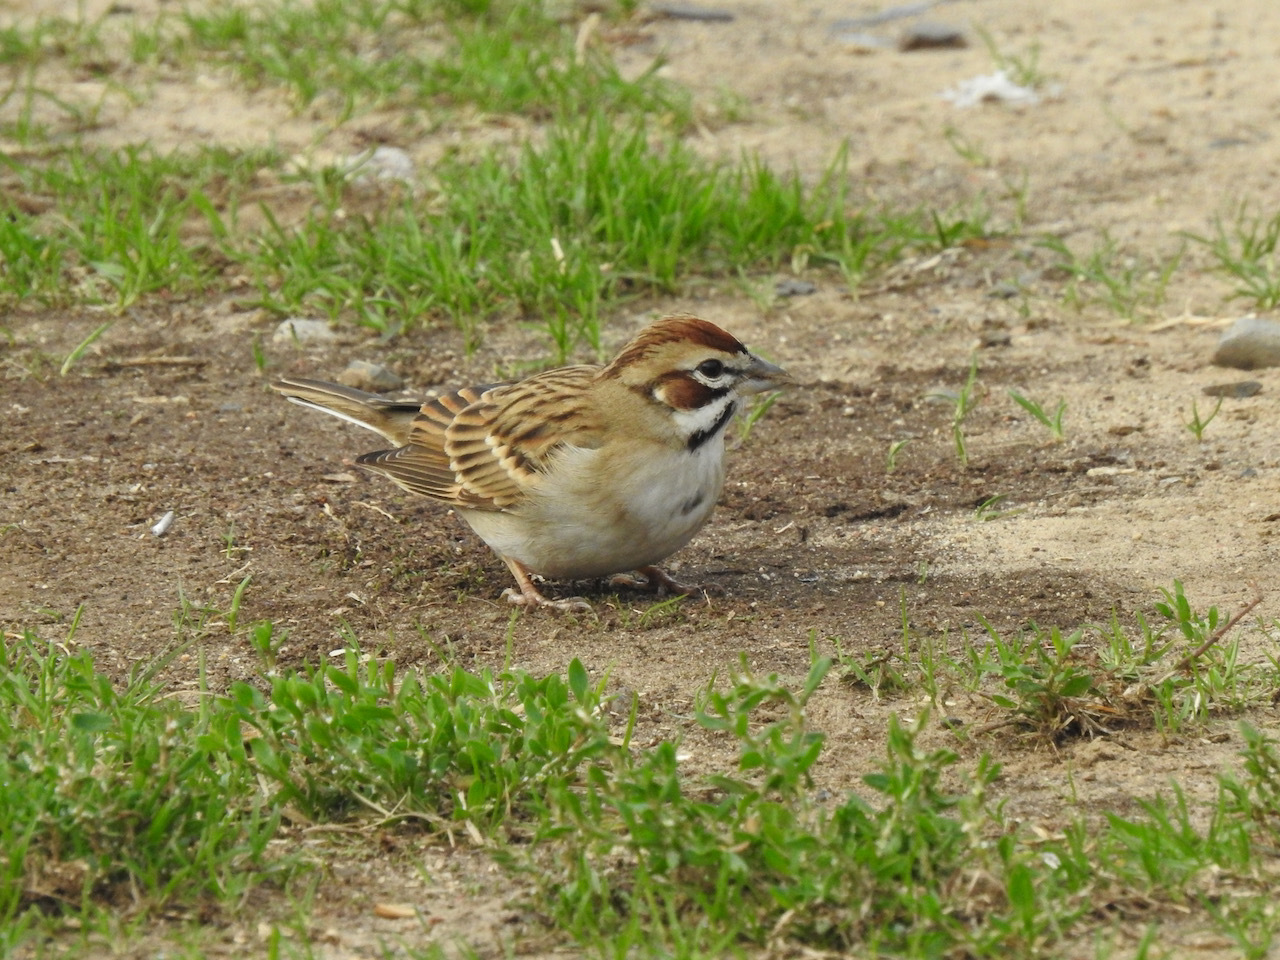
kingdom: Animalia
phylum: Chordata
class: Aves
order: Passeriformes
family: Passerellidae
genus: Chondestes
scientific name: Chondestes grammacus
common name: Lark sparrow
